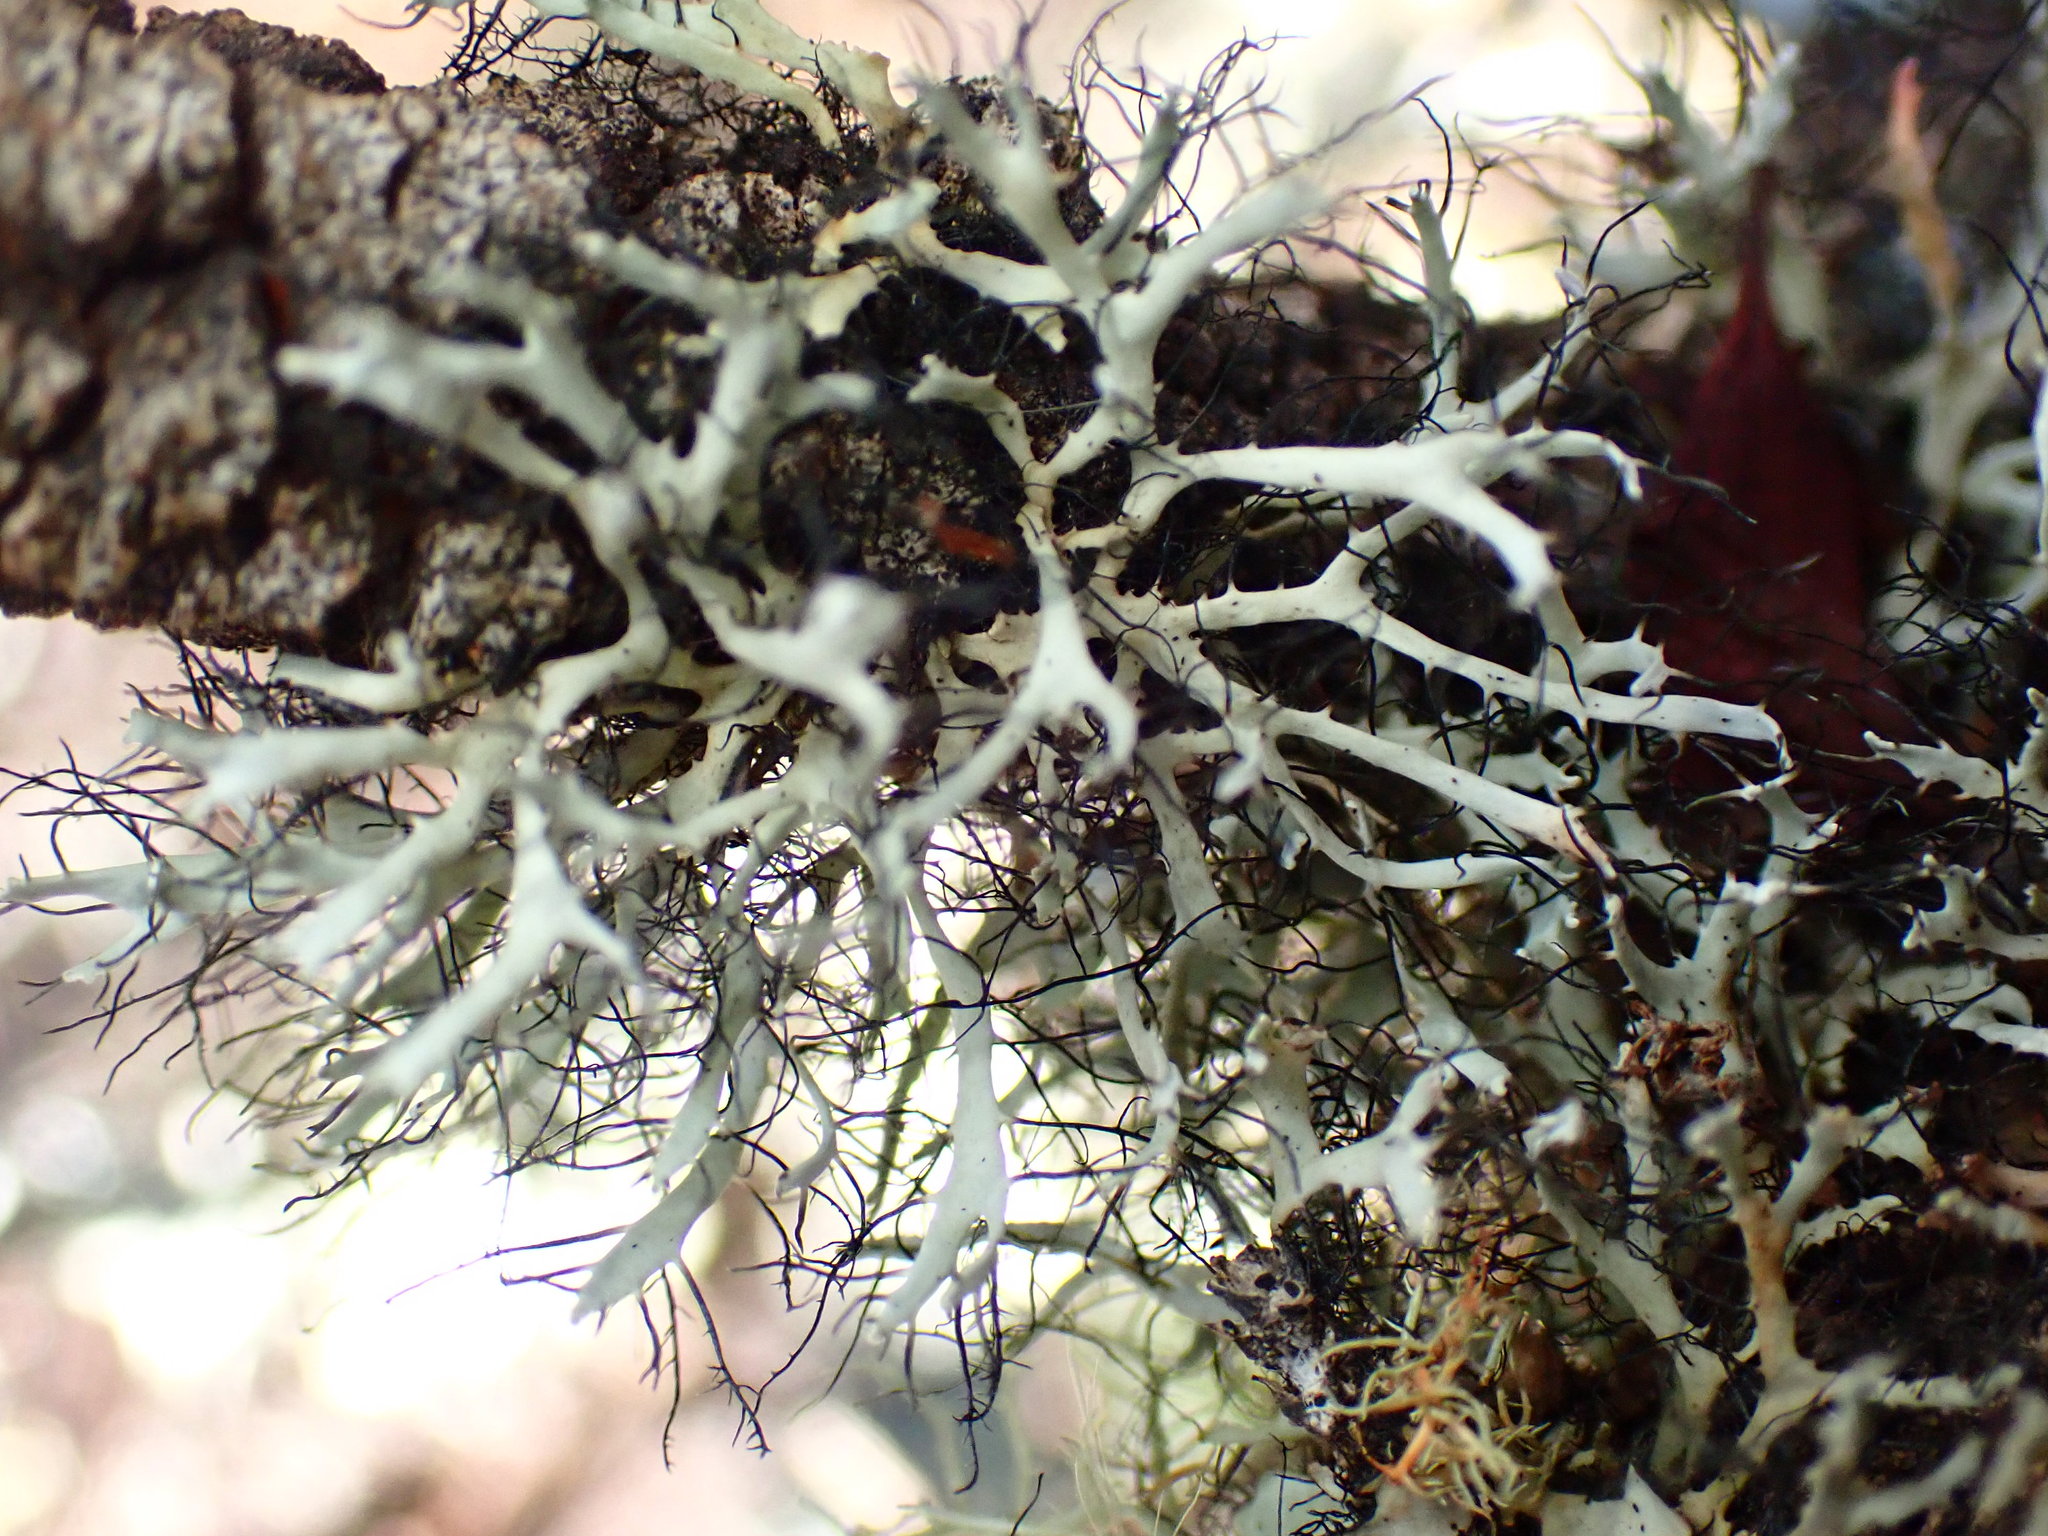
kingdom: Fungi
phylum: Ascomycota
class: Lecanoromycetes
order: Caliciales
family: Physciaceae
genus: Leucodermia
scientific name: Leucodermia leucomelos
